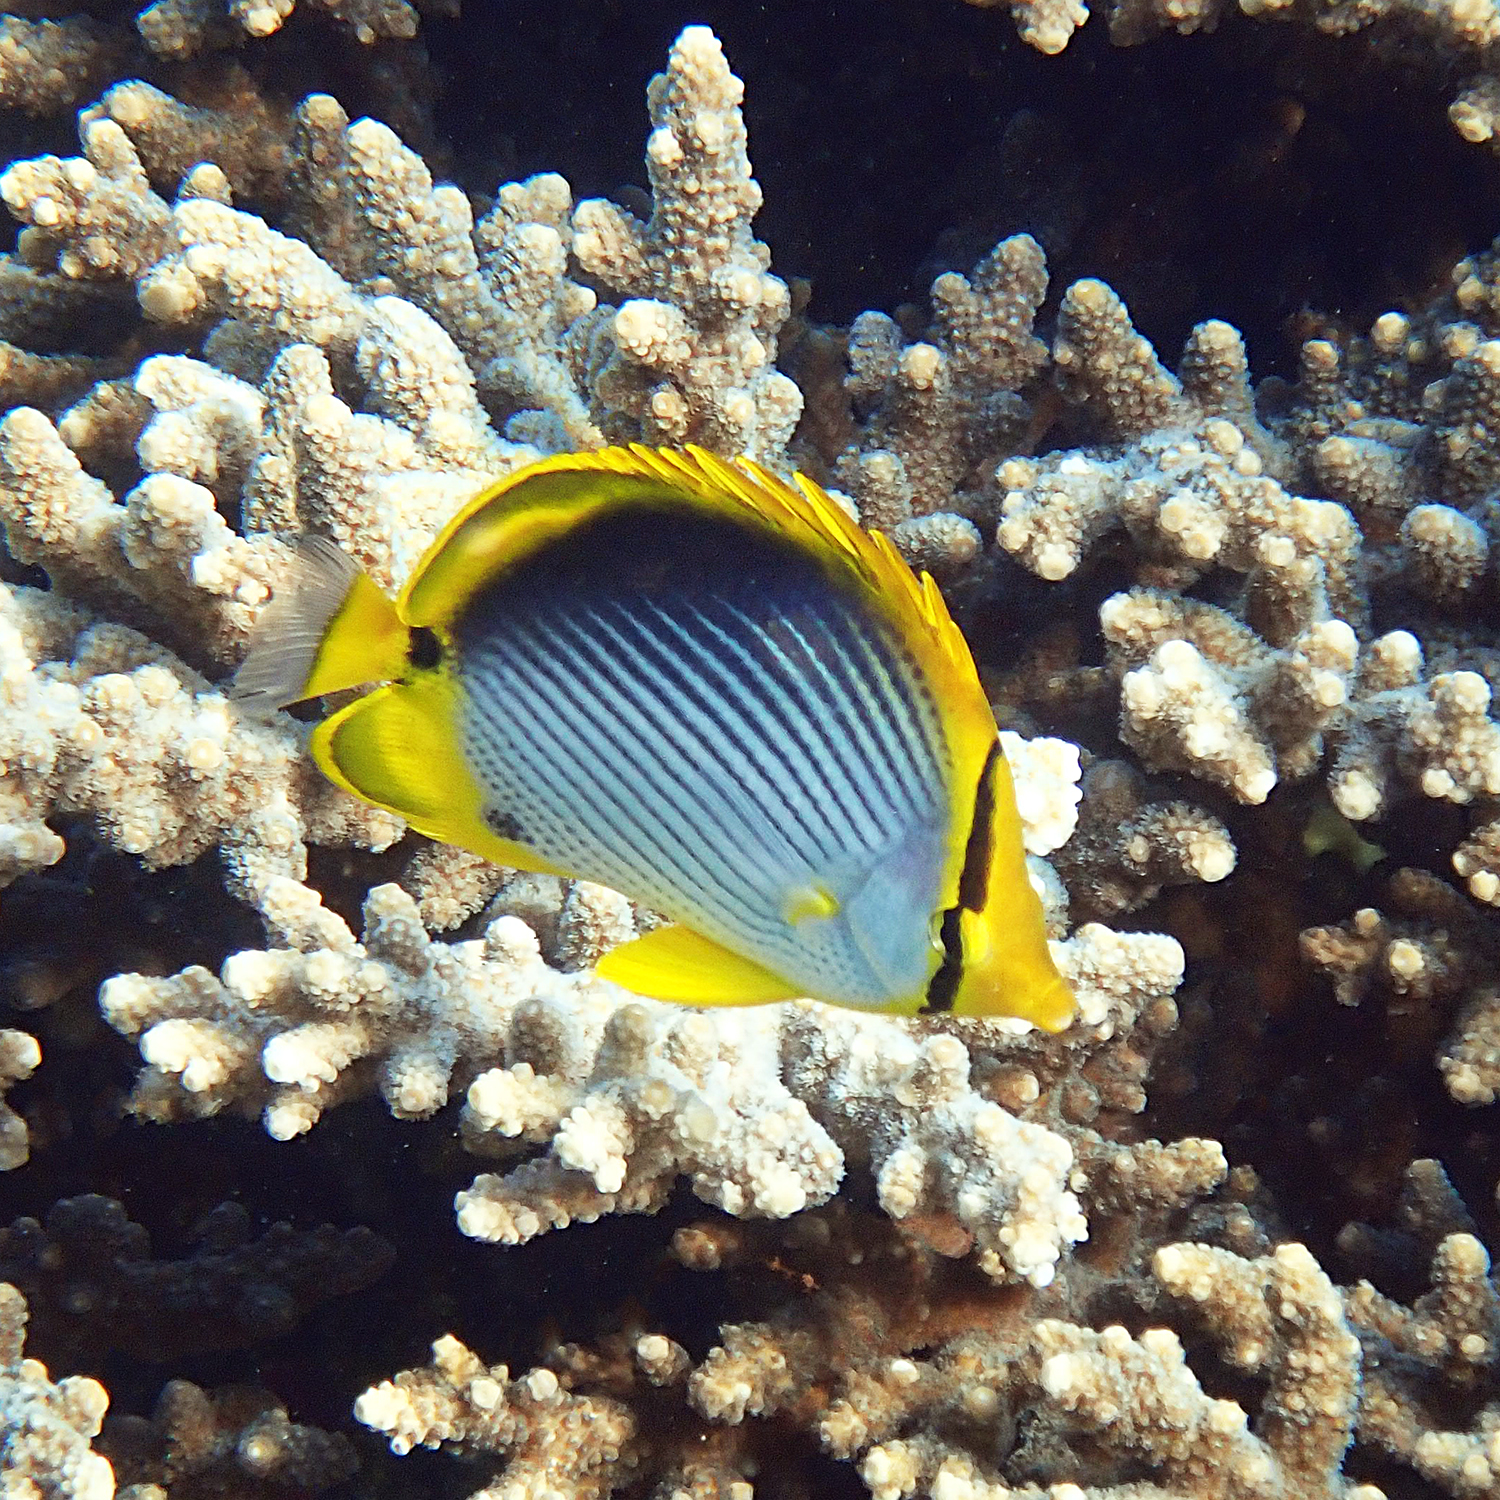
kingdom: Animalia
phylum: Chordata
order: Perciformes
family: Chaetodontidae
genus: Chaetodon
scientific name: Chaetodon melannotus
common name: Blackback butterflyfish
